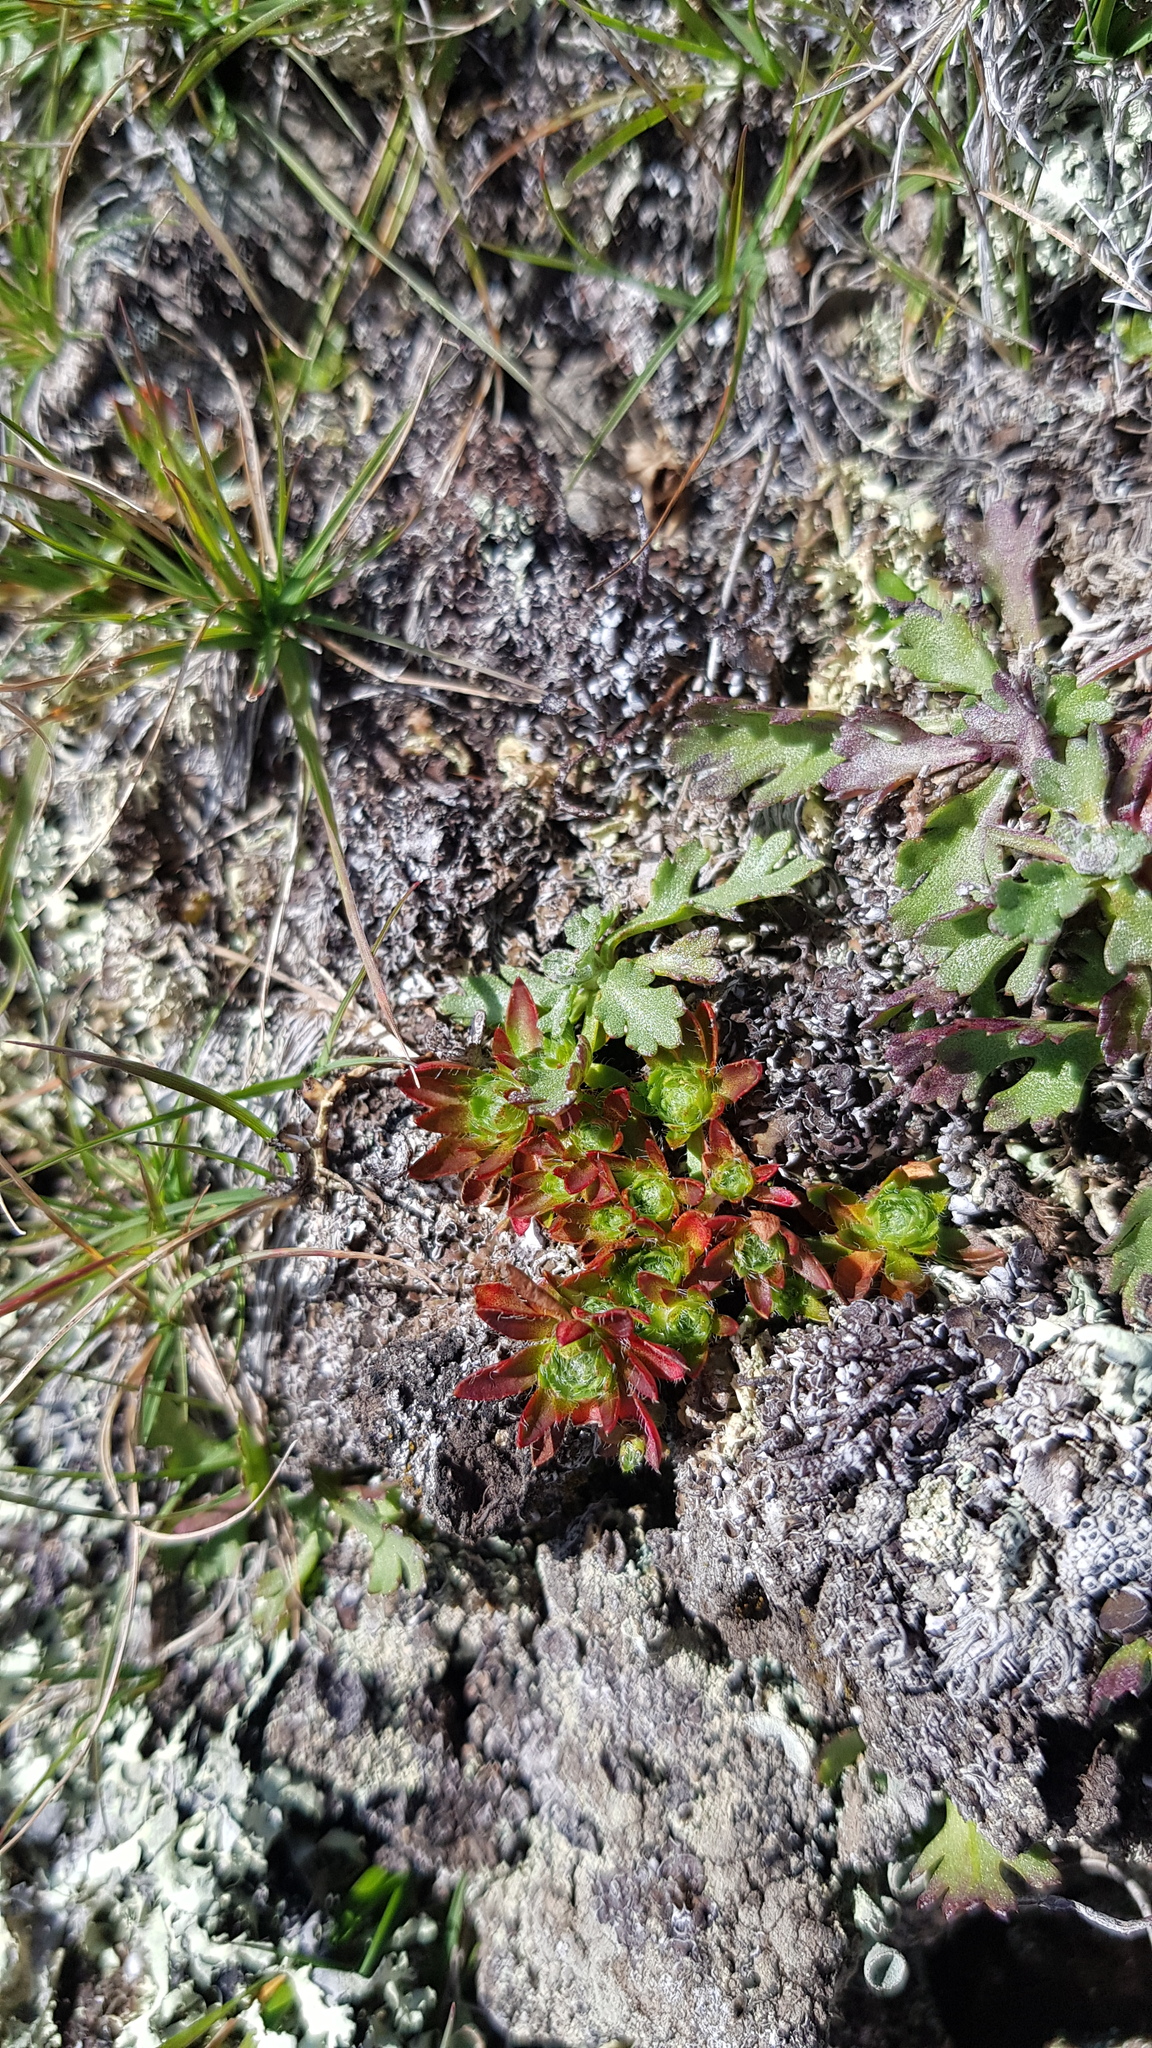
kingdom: Plantae
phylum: Tracheophyta
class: Magnoliopsida
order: Rosales
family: Rosaceae
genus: Chamaerhodos
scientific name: Chamaerhodos erecta
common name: American chamaerhodos
